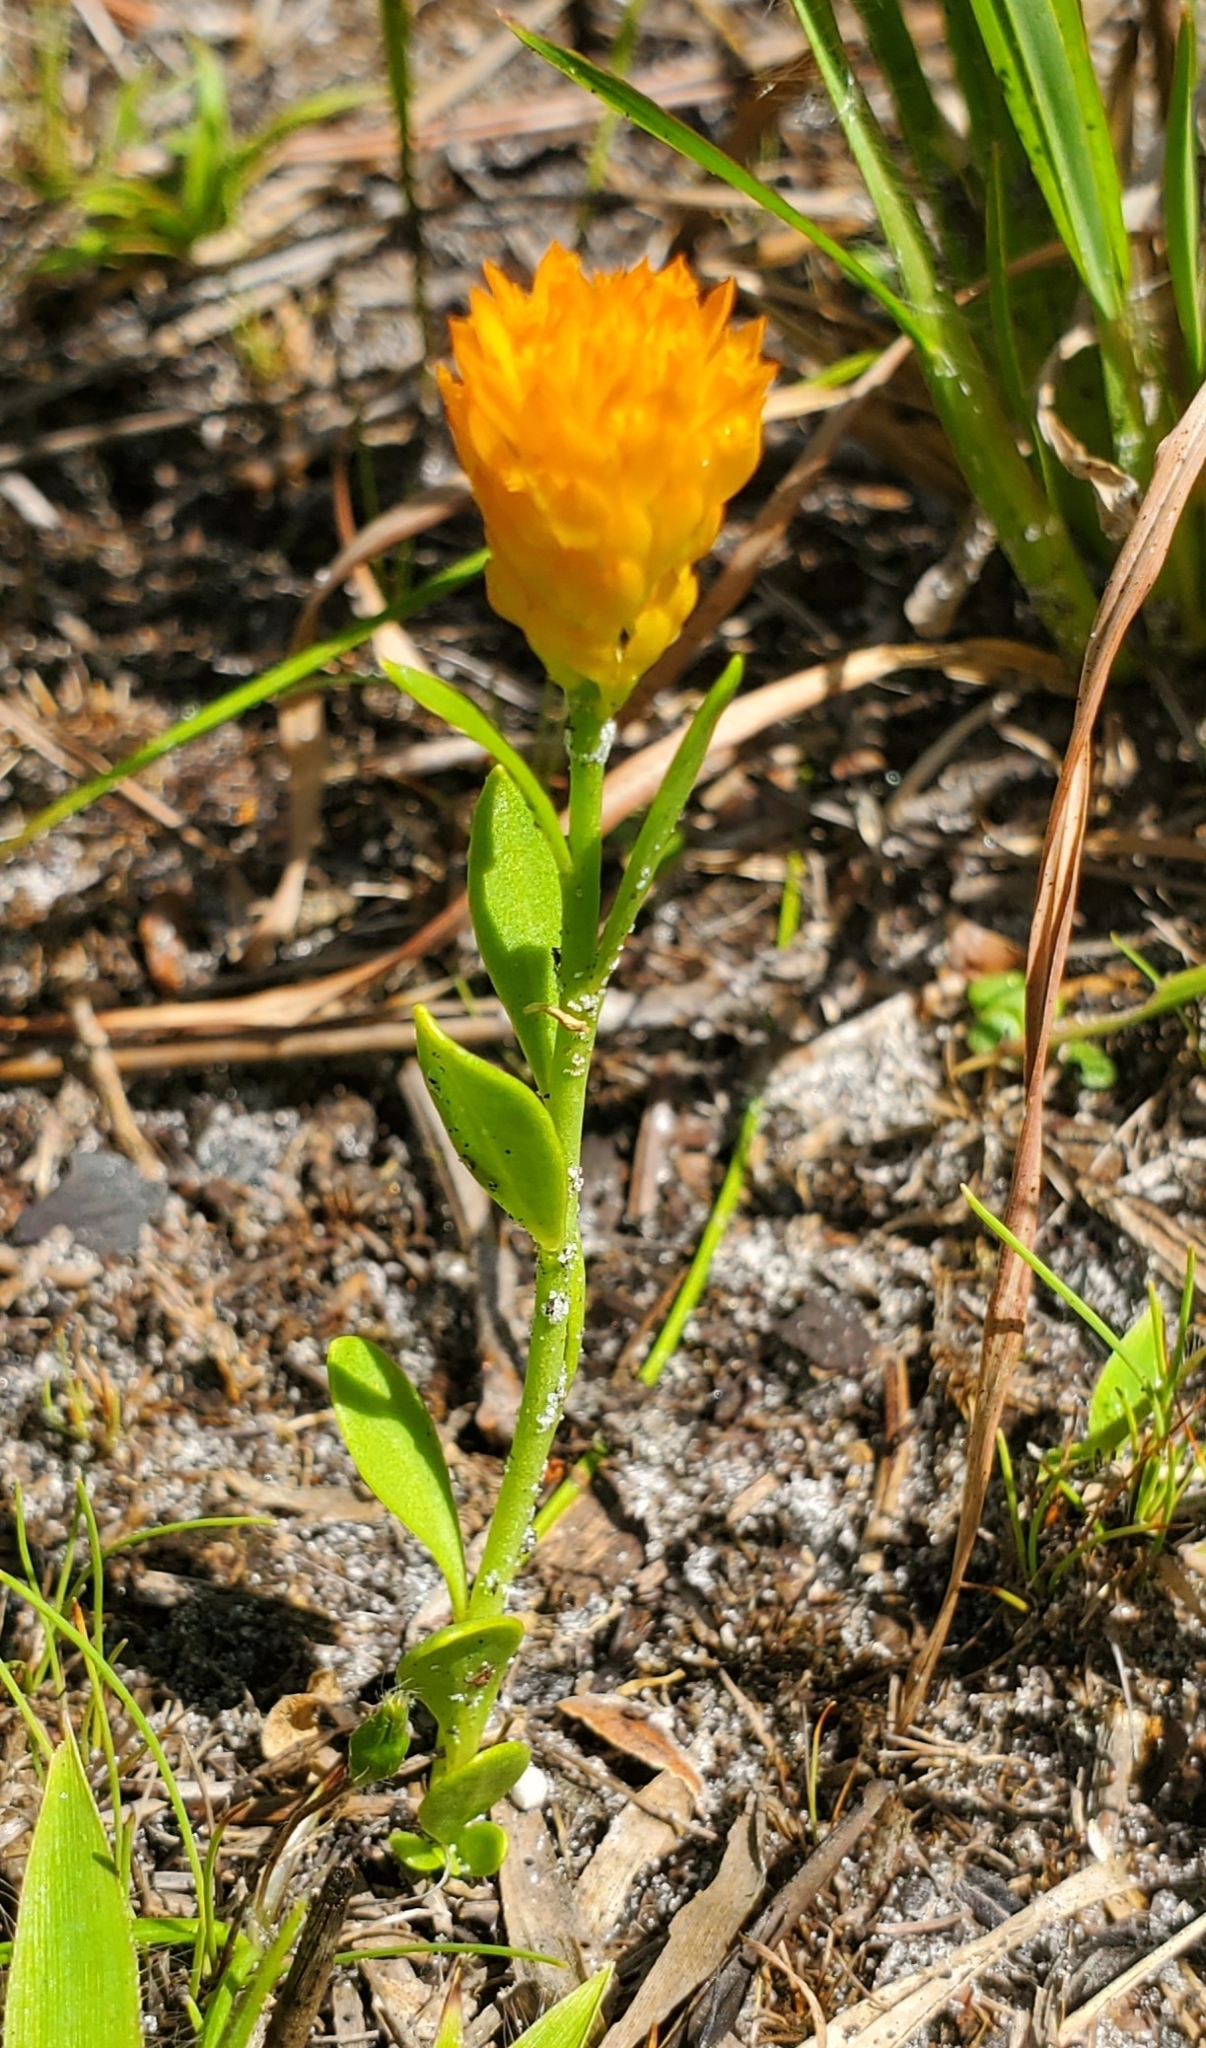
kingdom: Plantae
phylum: Tracheophyta
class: Magnoliopsida
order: Fabales
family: Polygalaceae
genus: Polygala
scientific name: Polygala lutea
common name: Orange milkwort
